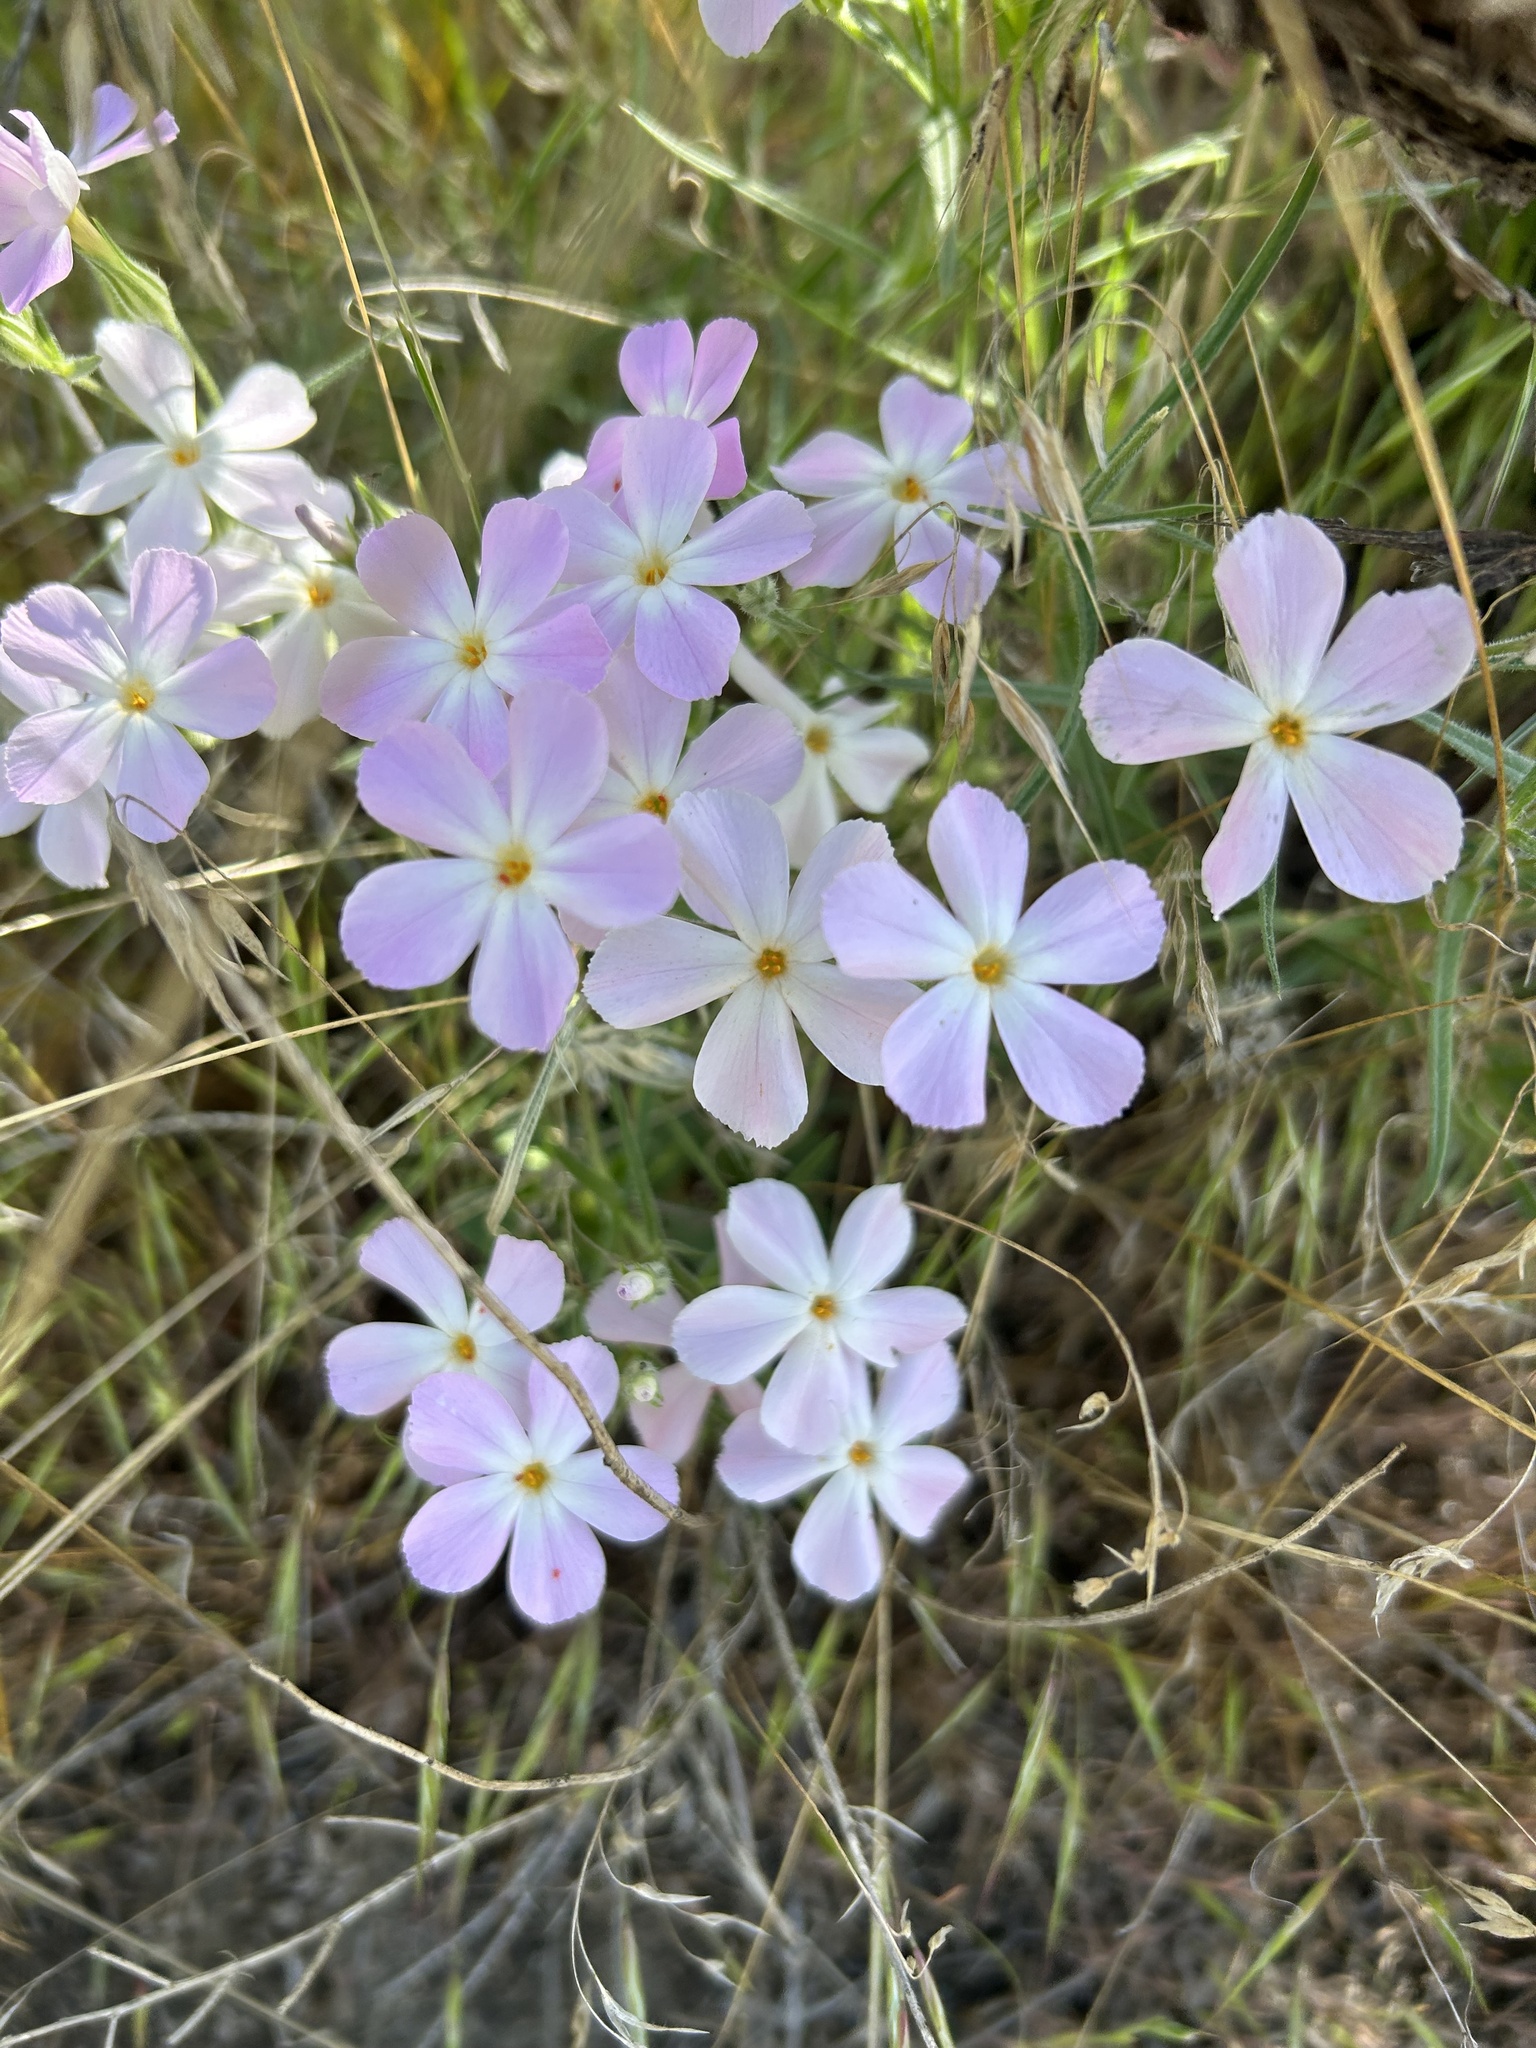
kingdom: Plantae
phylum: Tracheophyta
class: Magnoliopsida
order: Ericales
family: Polemoniaceae
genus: Phlox
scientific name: Phlox longifolia
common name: Longleaf phlox
